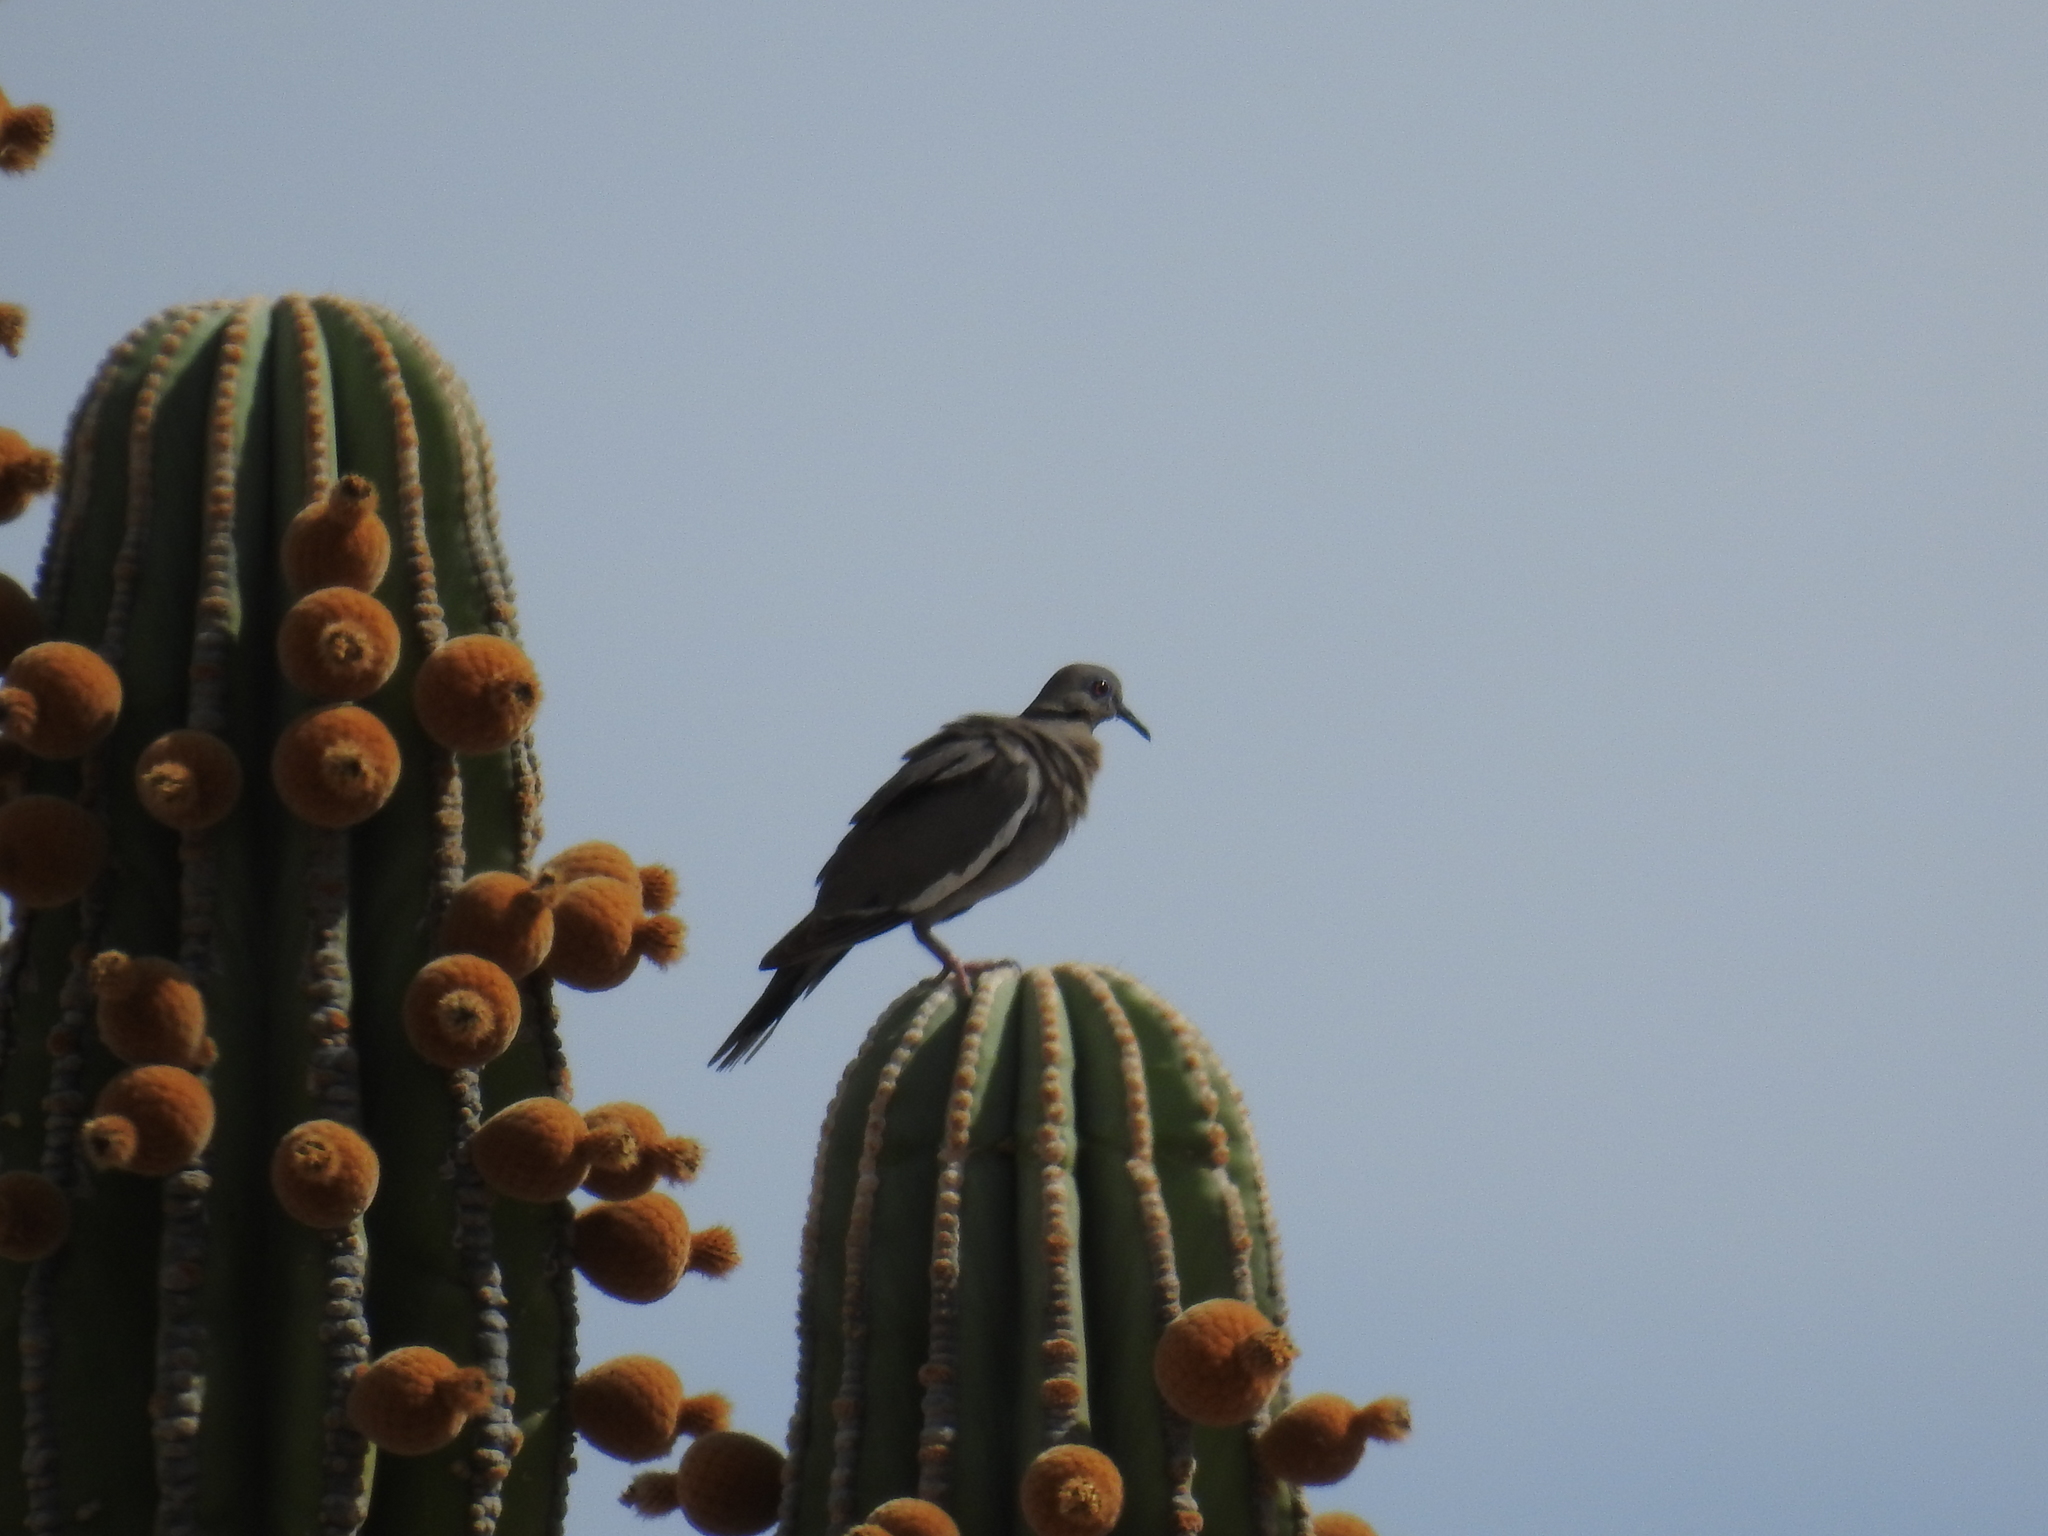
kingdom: Animalia
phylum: Chordata
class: Aves
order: Columbiformes
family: Columbidae
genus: Zenaida
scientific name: Zenaida asiatica
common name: White-winged dove
